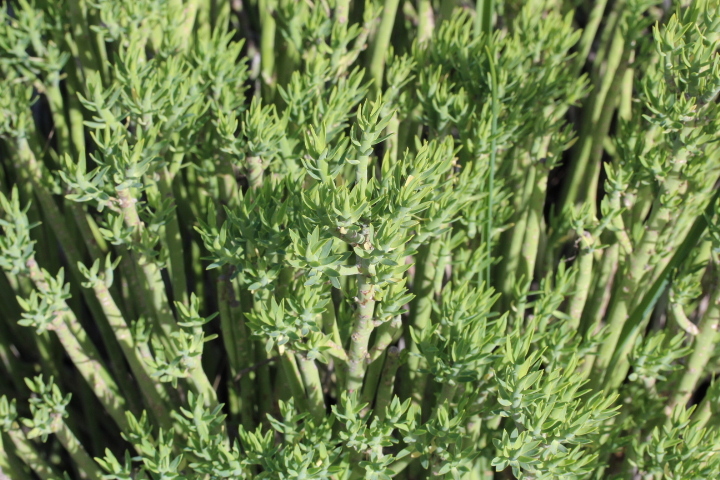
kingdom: Plantae
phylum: Tracheophyta
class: Magnoliopsida
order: Malpighiales
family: Euphorbiaceae
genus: Euphorbia
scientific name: Euphorbia mauritanica
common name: Jackal's-food
